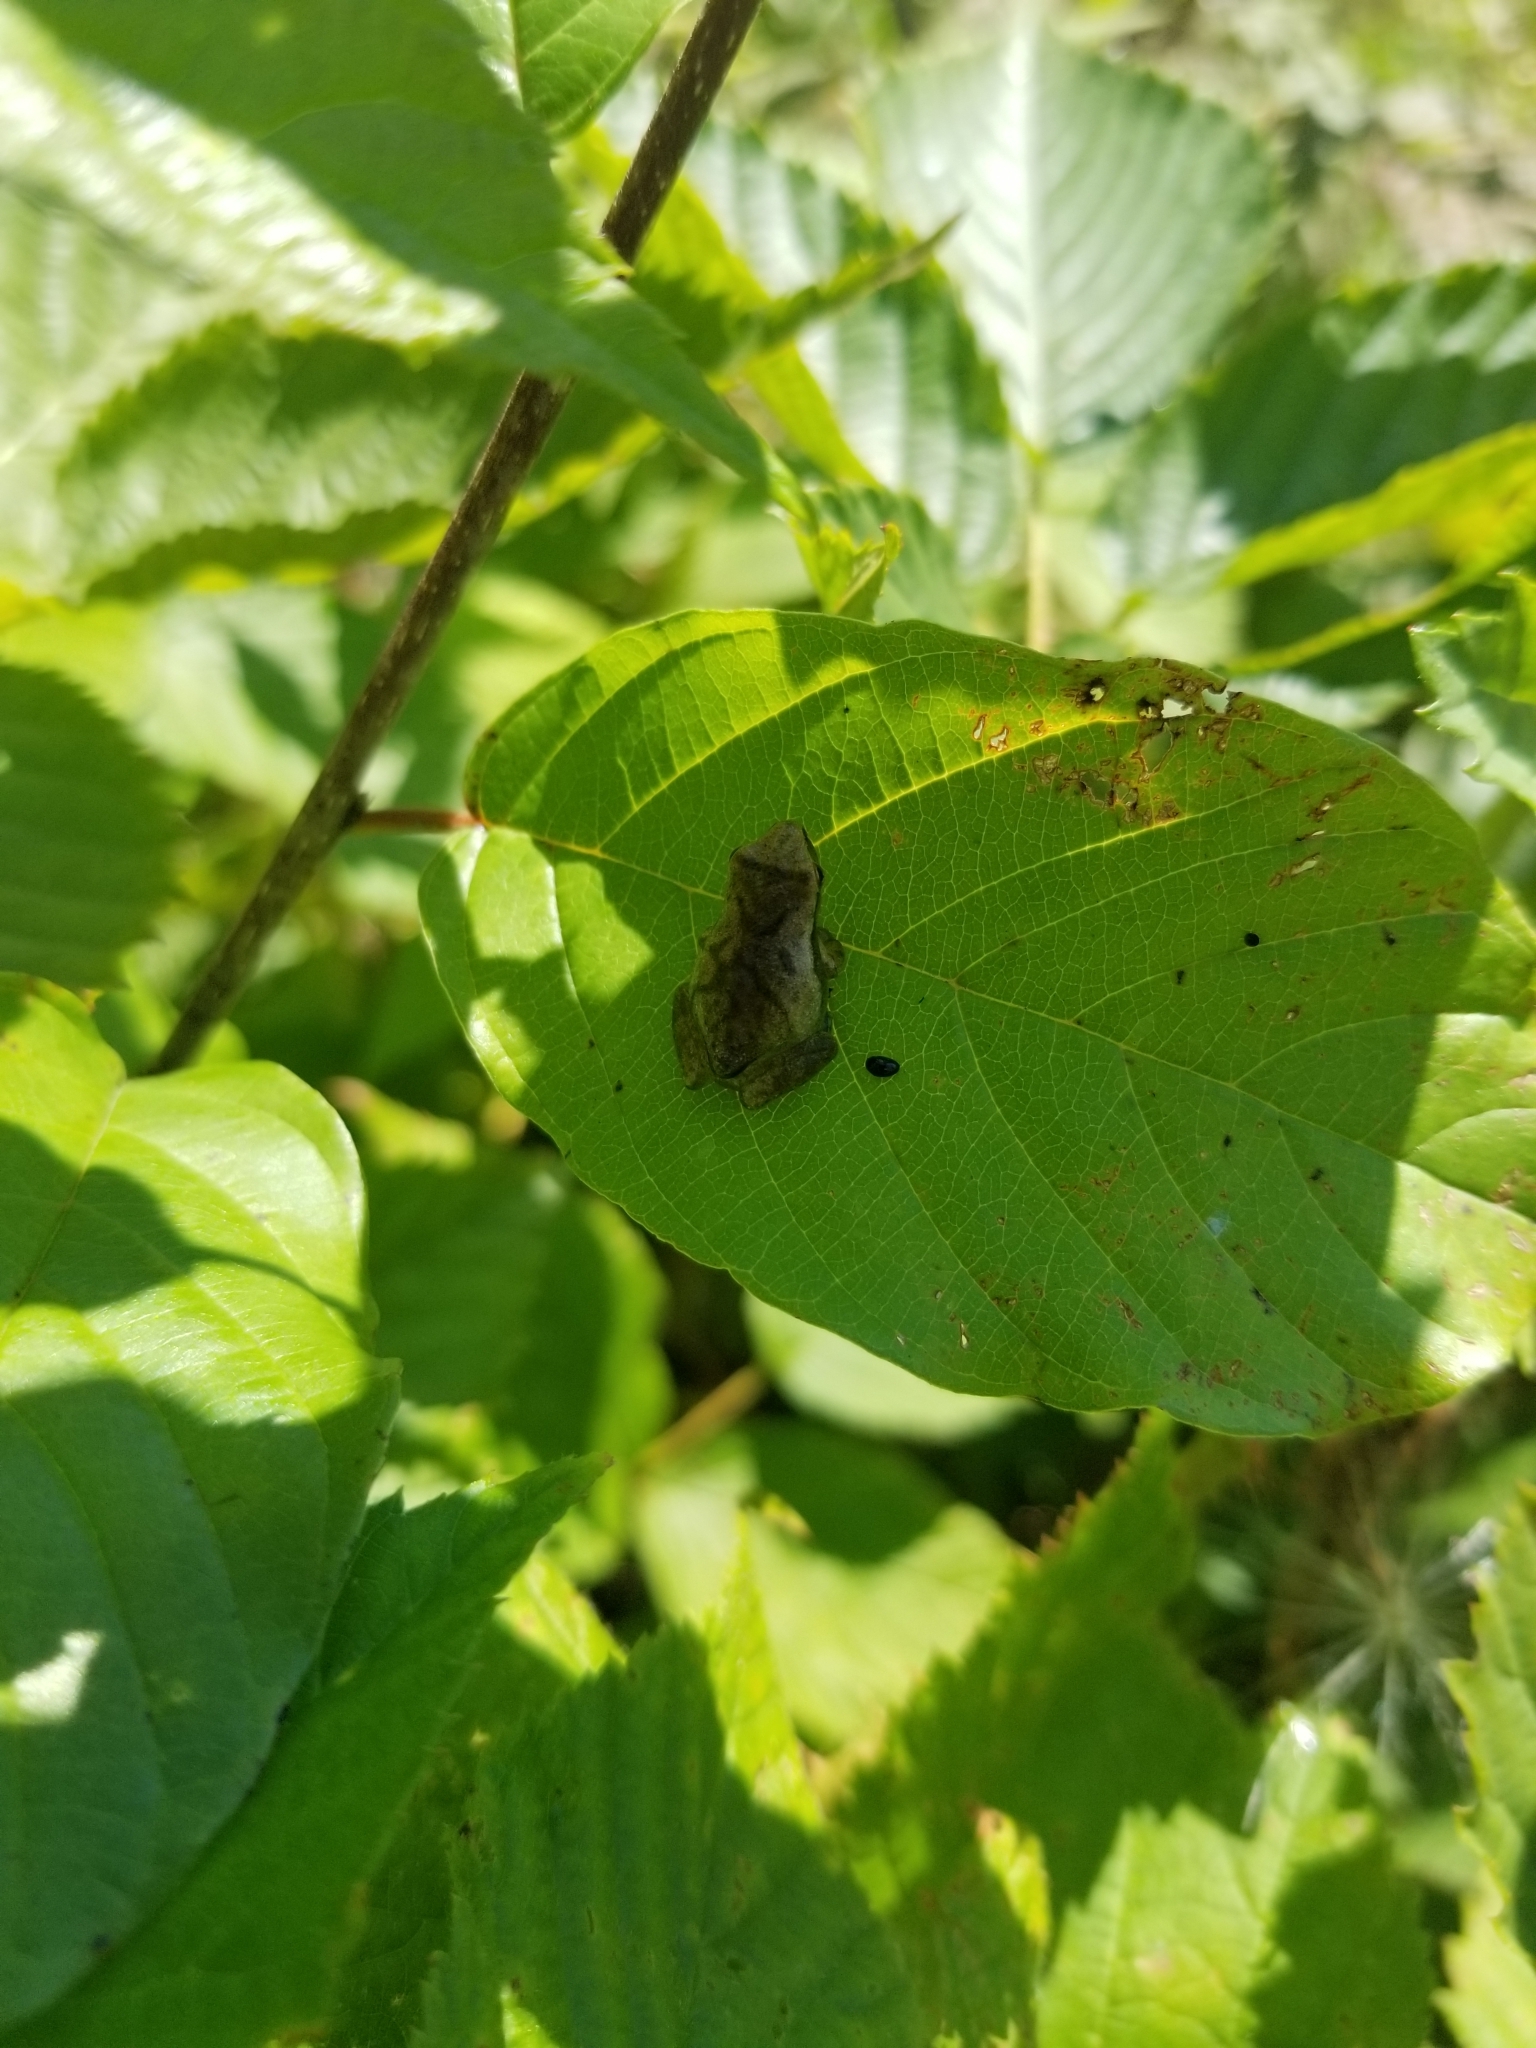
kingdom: Animalia
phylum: Chordata
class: Amphibia
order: Anura
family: Hylidae
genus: Pseudacris
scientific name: Pseudacris crucifer
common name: Spring peeper
